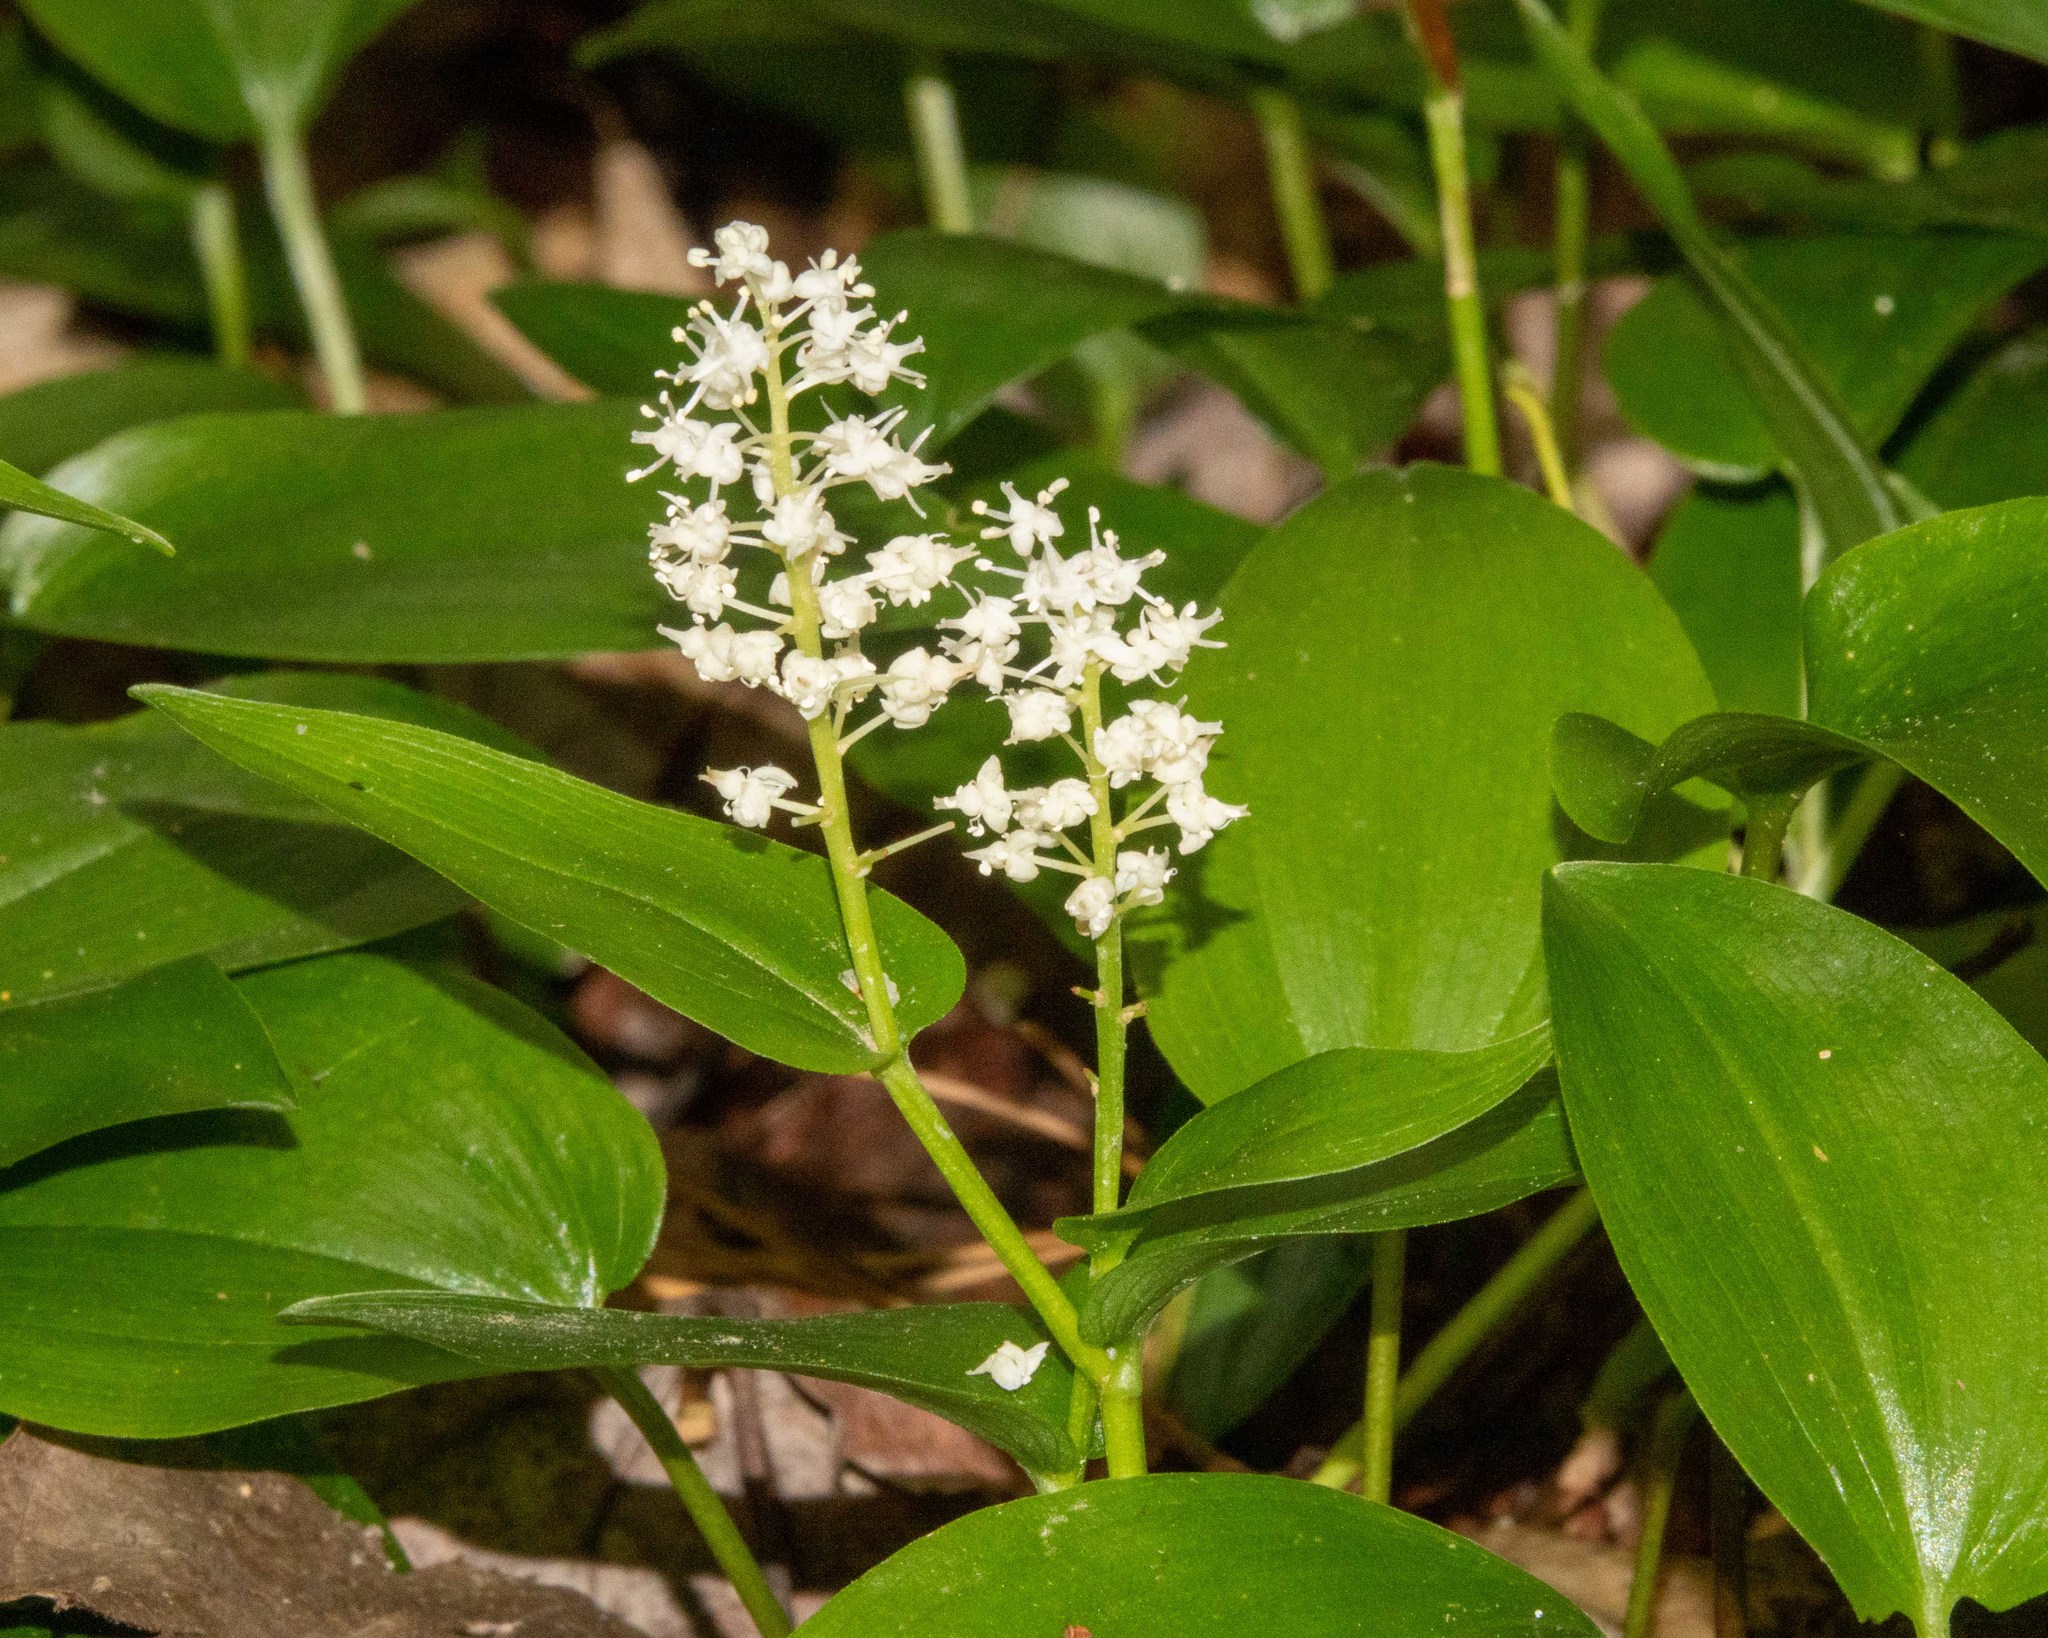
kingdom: Plantae
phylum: Tracheophyta
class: Liliopsida
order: Asparagales
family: Asparagaceae
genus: Maianthemum
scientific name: Maianthemum canadense
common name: False lily-of-the-valley
